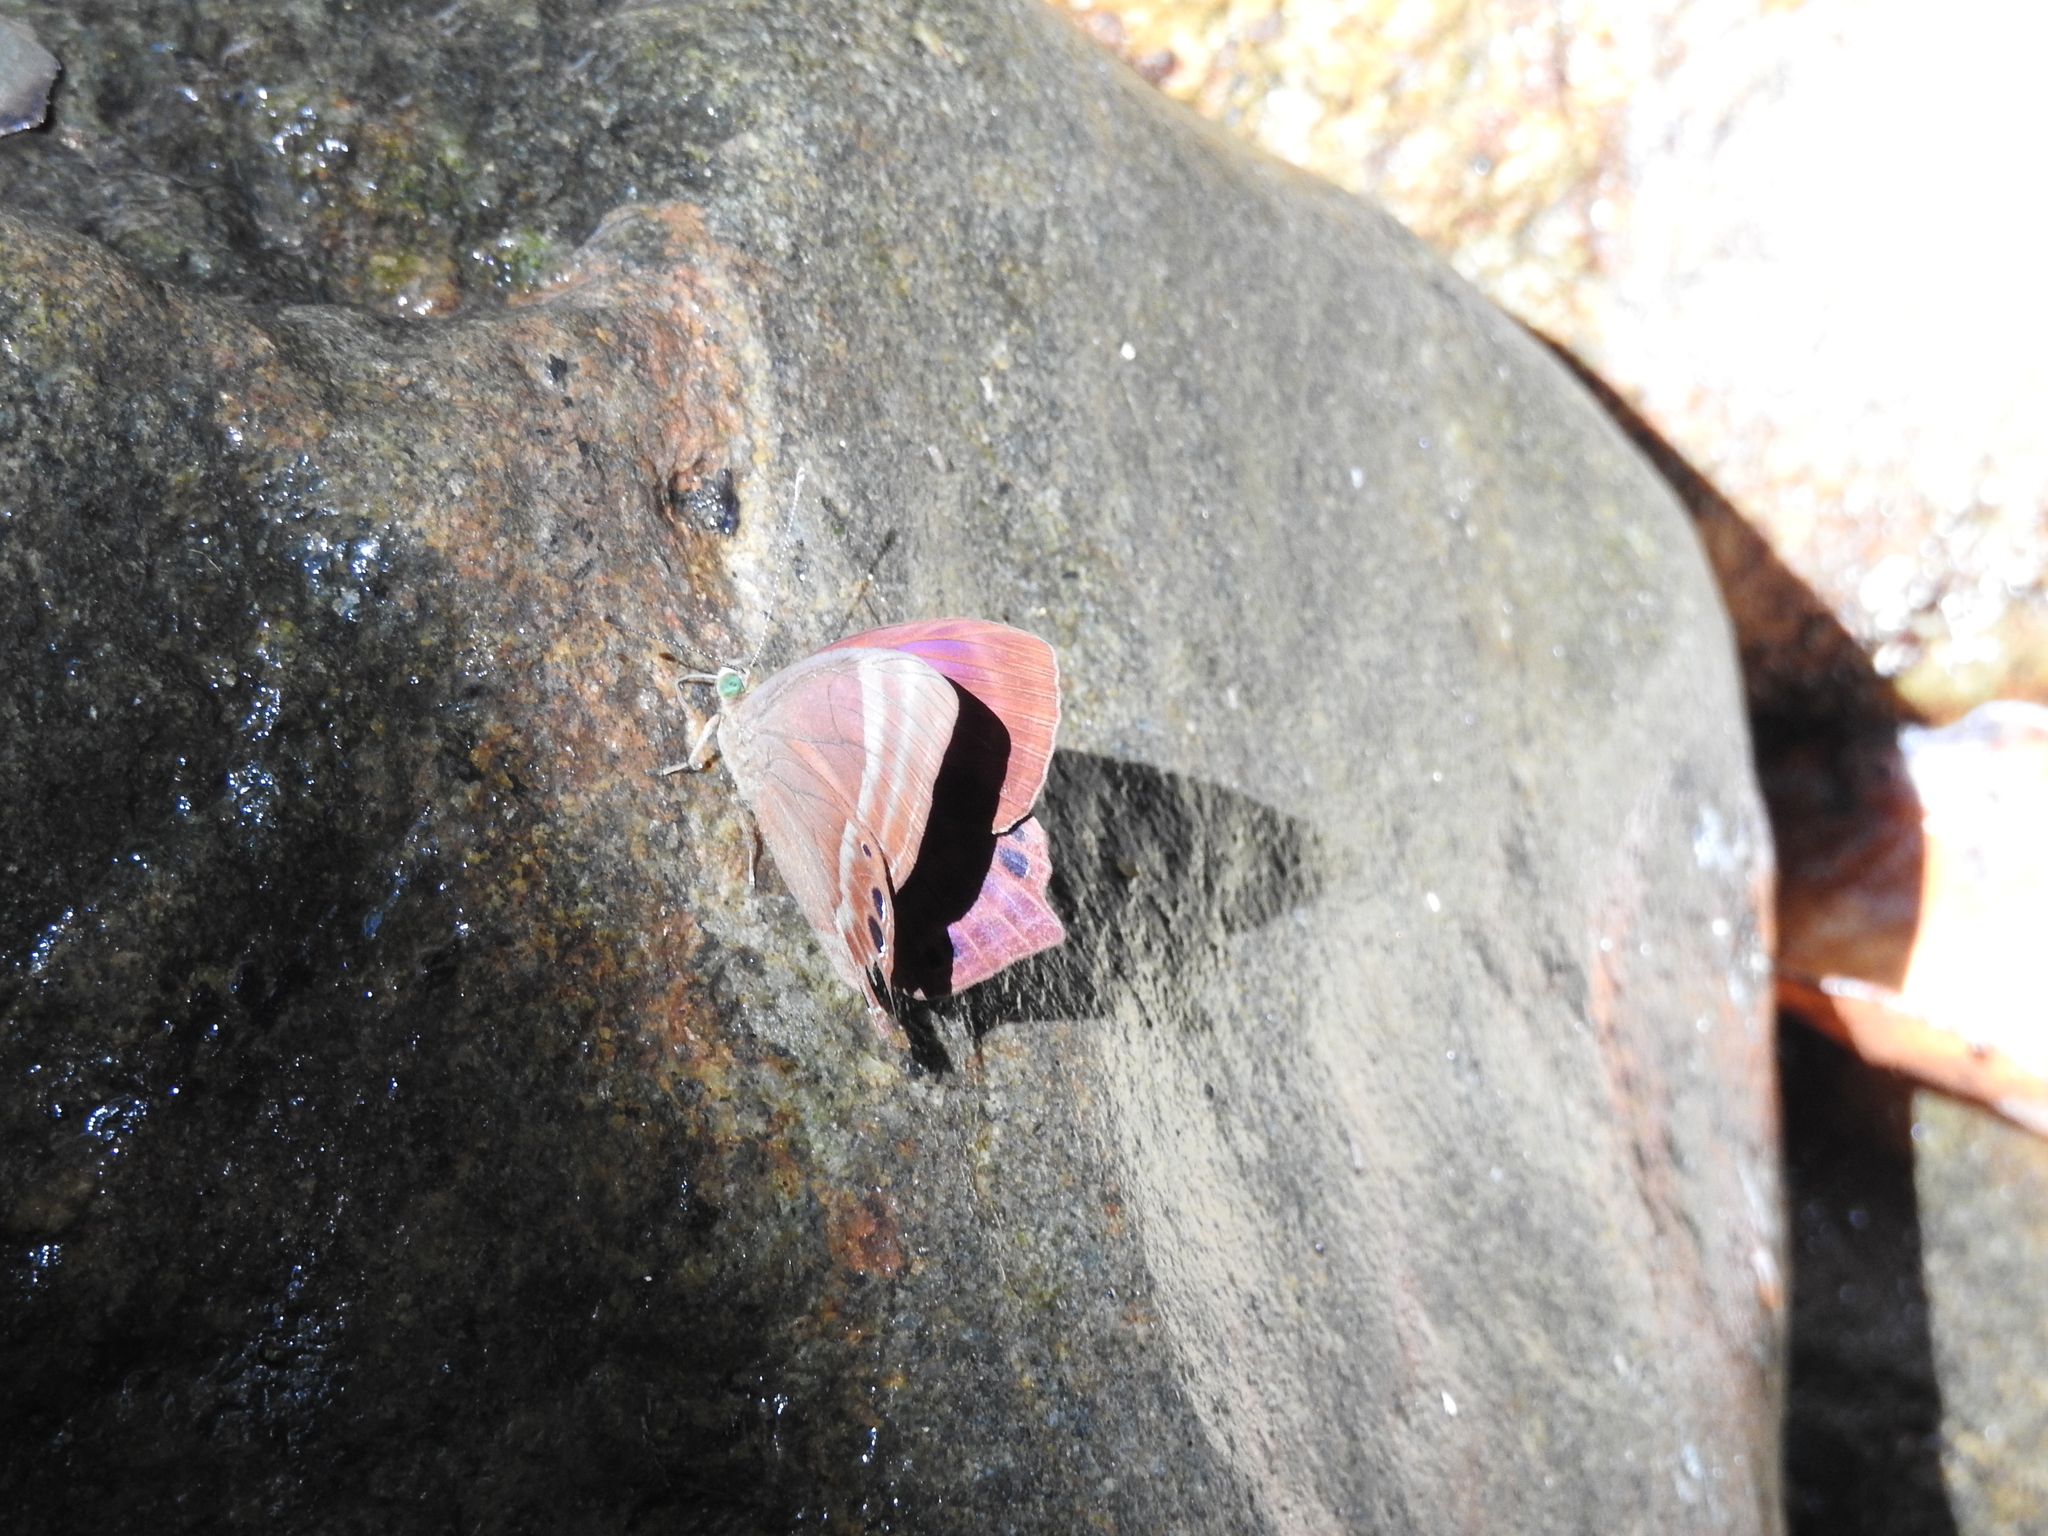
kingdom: Animalia
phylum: Arthropoda
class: Insecta
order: Lepidoptera
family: Lycaenidae
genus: Abisara
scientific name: Abisara echeria
